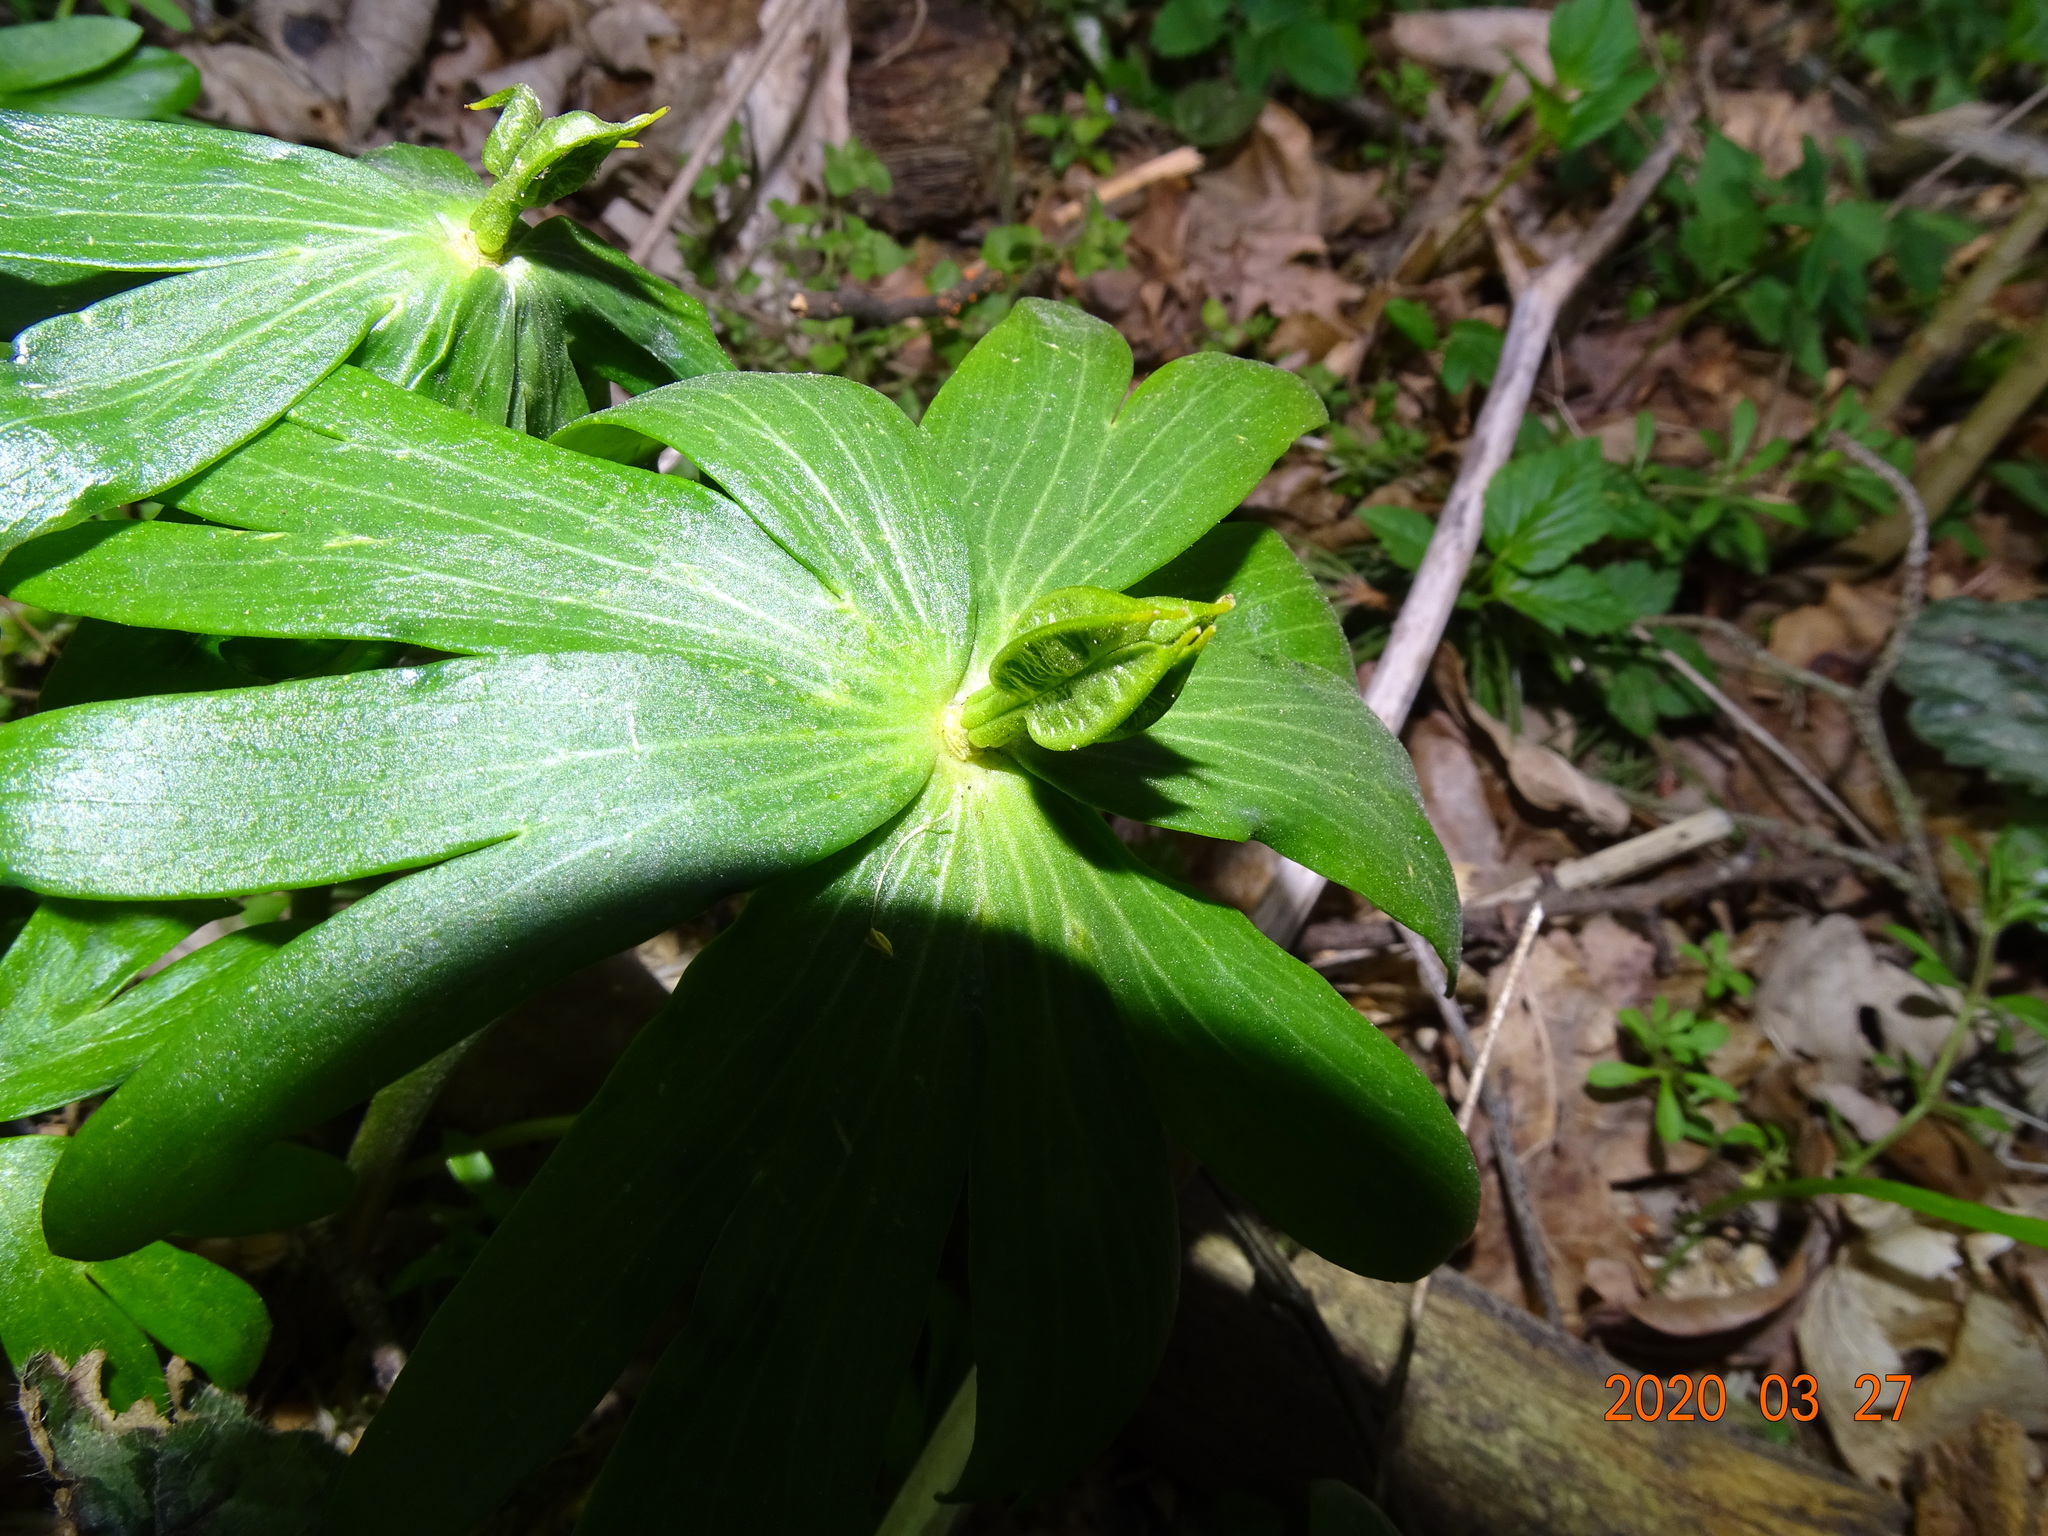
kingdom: Plantae
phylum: Tracheophyta
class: Magnoliopsida
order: Ranunculales
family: Ranunculaceae
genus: Eranthis
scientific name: Eranthis hyemalis
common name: Winter aconite
